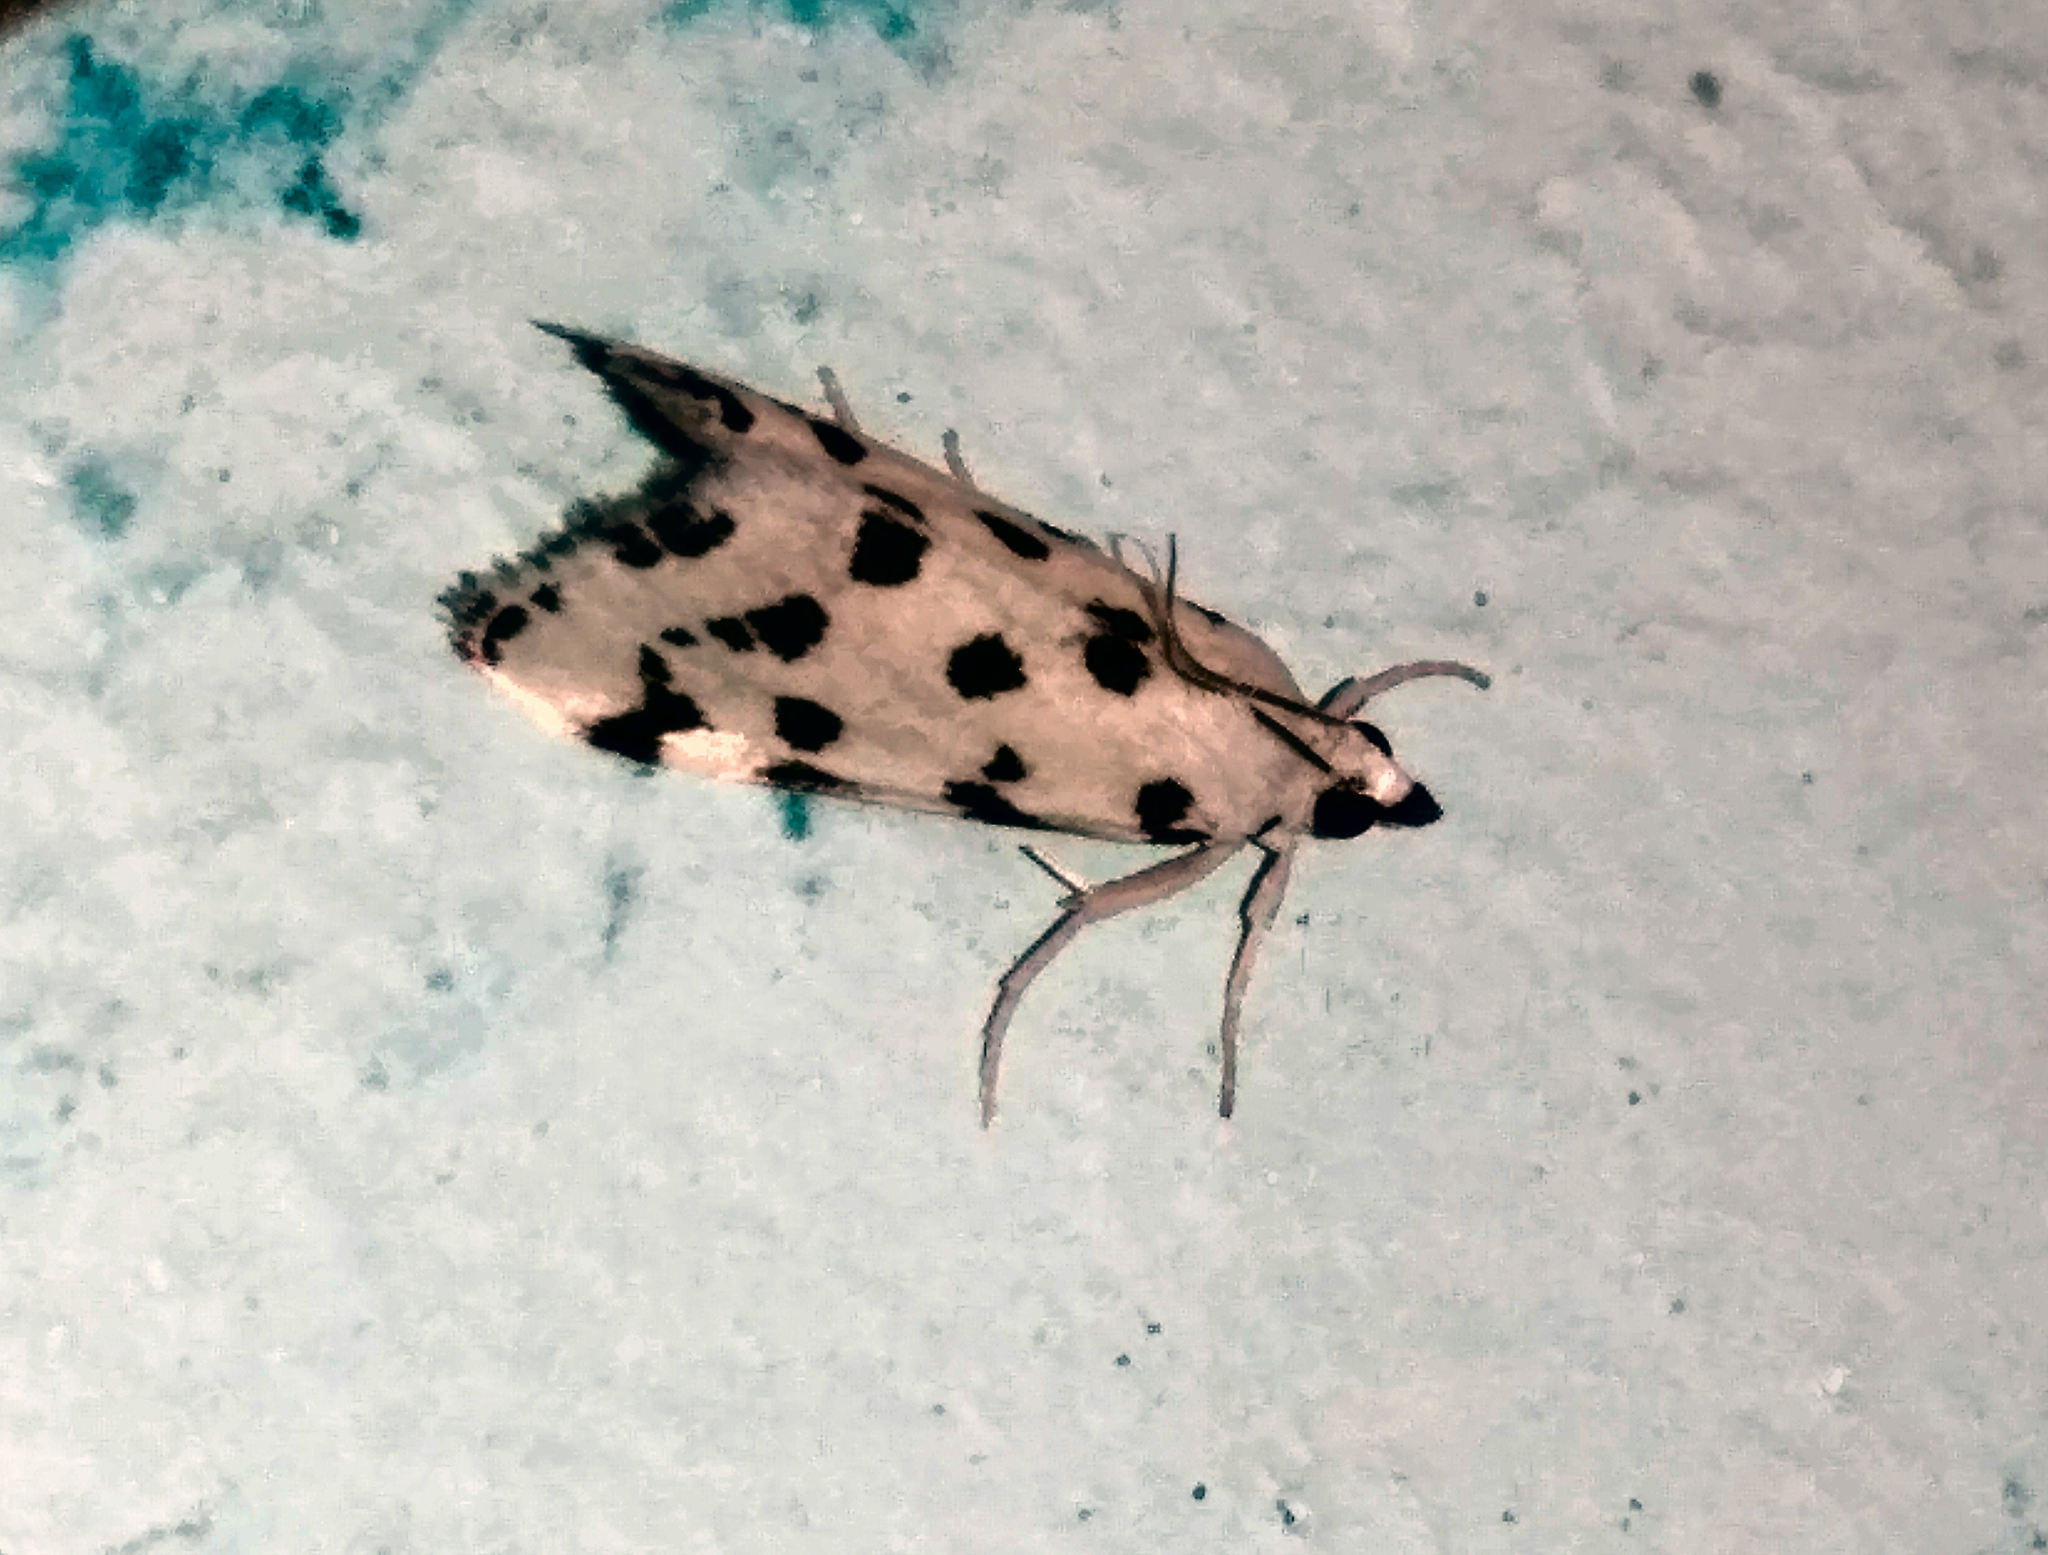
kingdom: Animalia
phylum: Arthropoda
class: Insecta
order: Lepidoptera
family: Crambidae
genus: Eustixia
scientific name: Eustixia pupula
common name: American cabbage pearl
